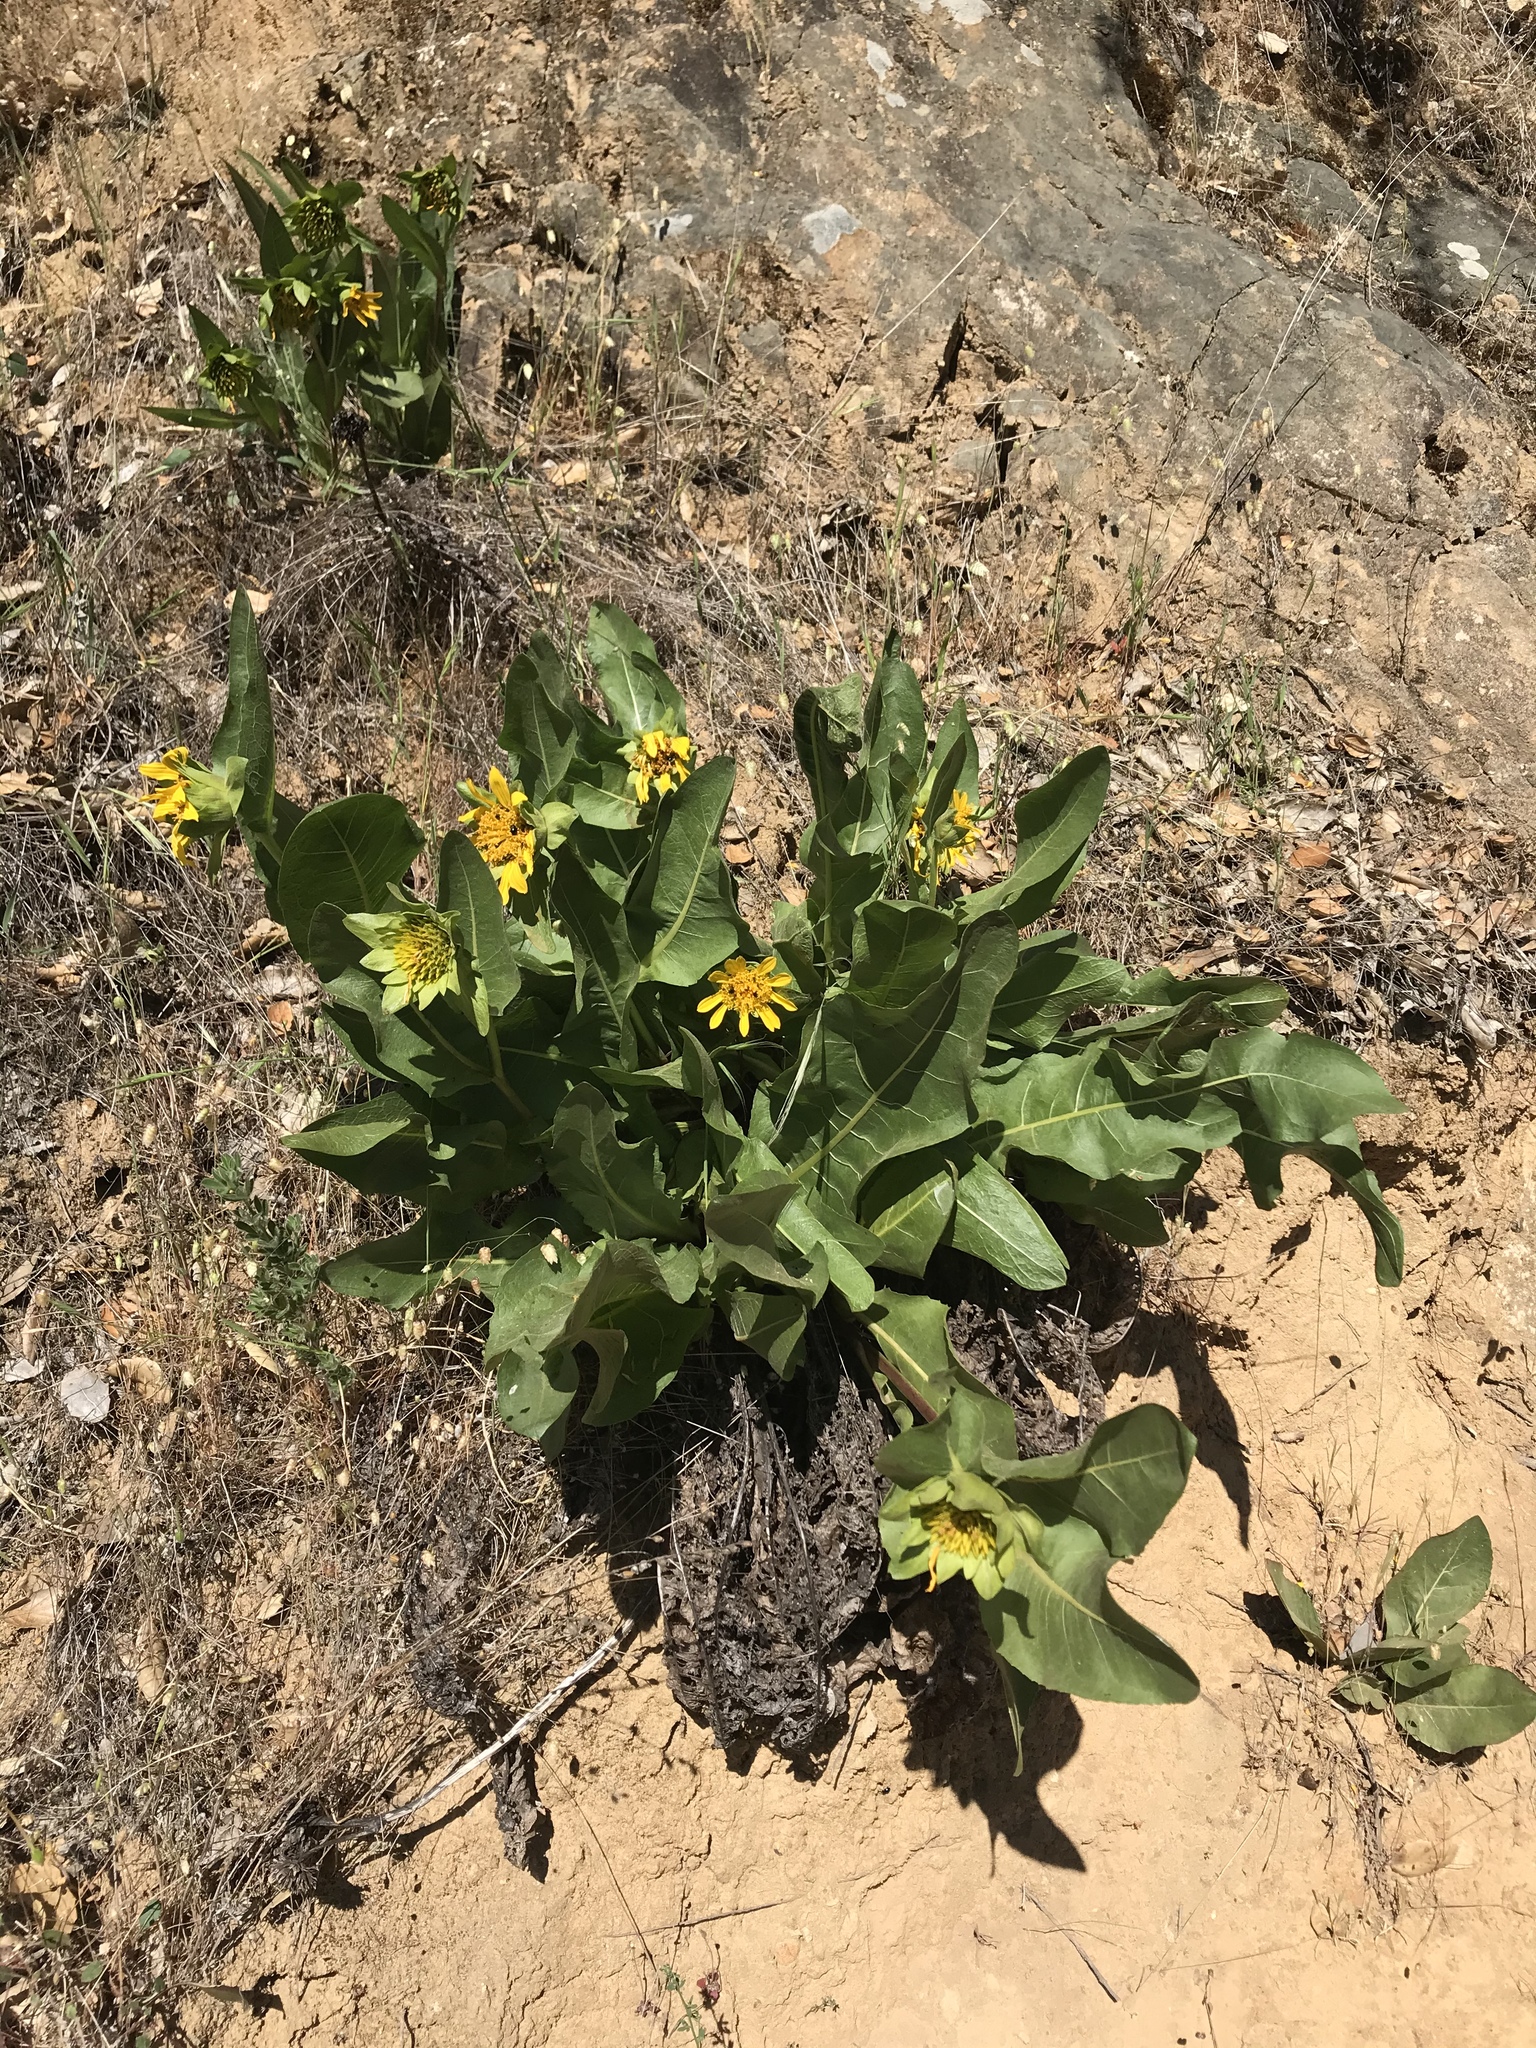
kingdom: Plantae
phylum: Tracheophyta
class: Magnoliopsida
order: Asterales
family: Asteraceae
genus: Wyethia
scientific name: Wyethia glabra
